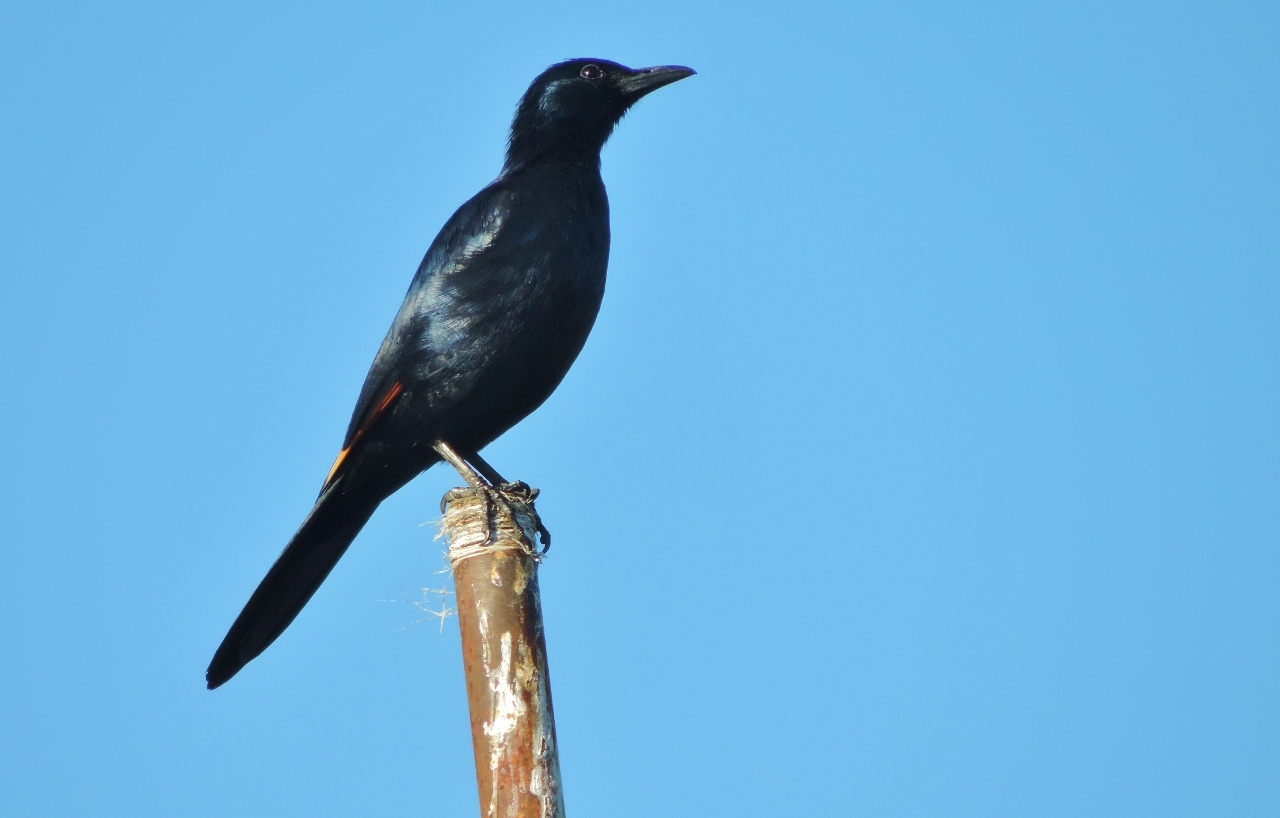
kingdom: Animalia
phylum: Chordata
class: Aves
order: Passeriformes
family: Sturnidae
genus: Onychognathus
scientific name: Onychognathus morio
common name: Red-winged starling
